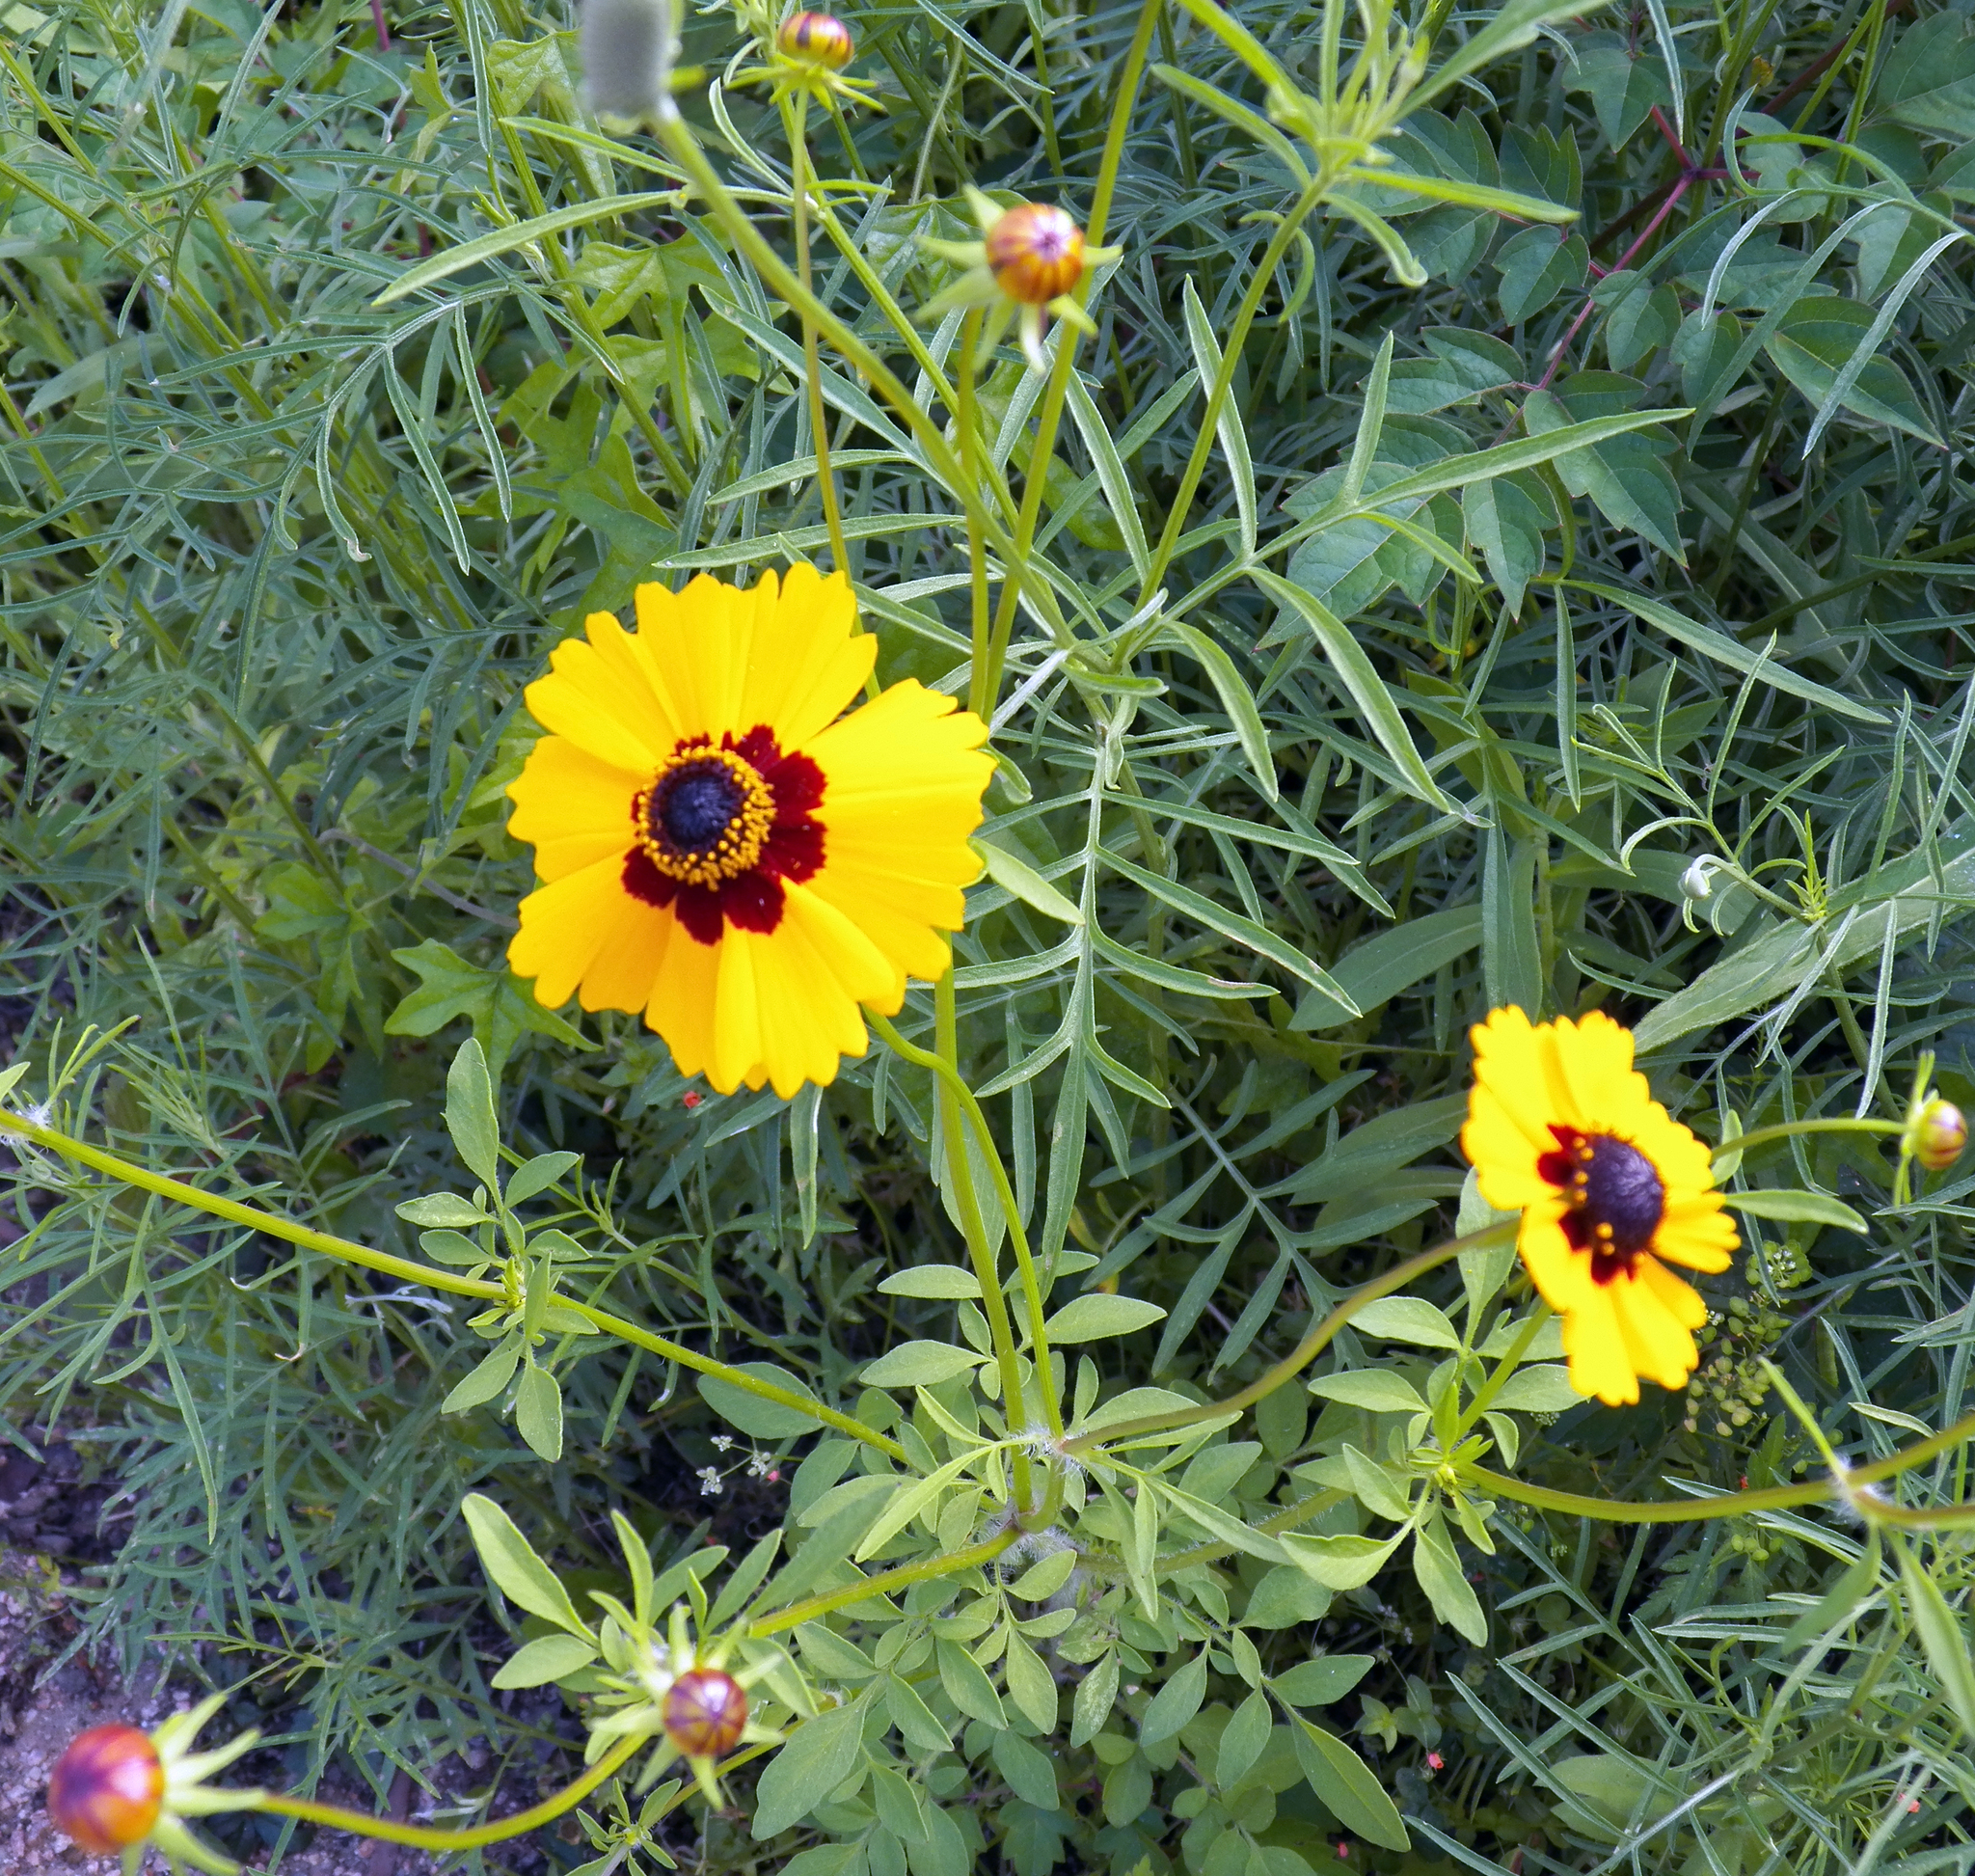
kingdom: Plantae
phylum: Tracheophyta
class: Magnoliopsida
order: Asterales
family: Asteraceae
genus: Coreopsis
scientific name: Coreopsis basalis
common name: Golden-mane coreopsis
